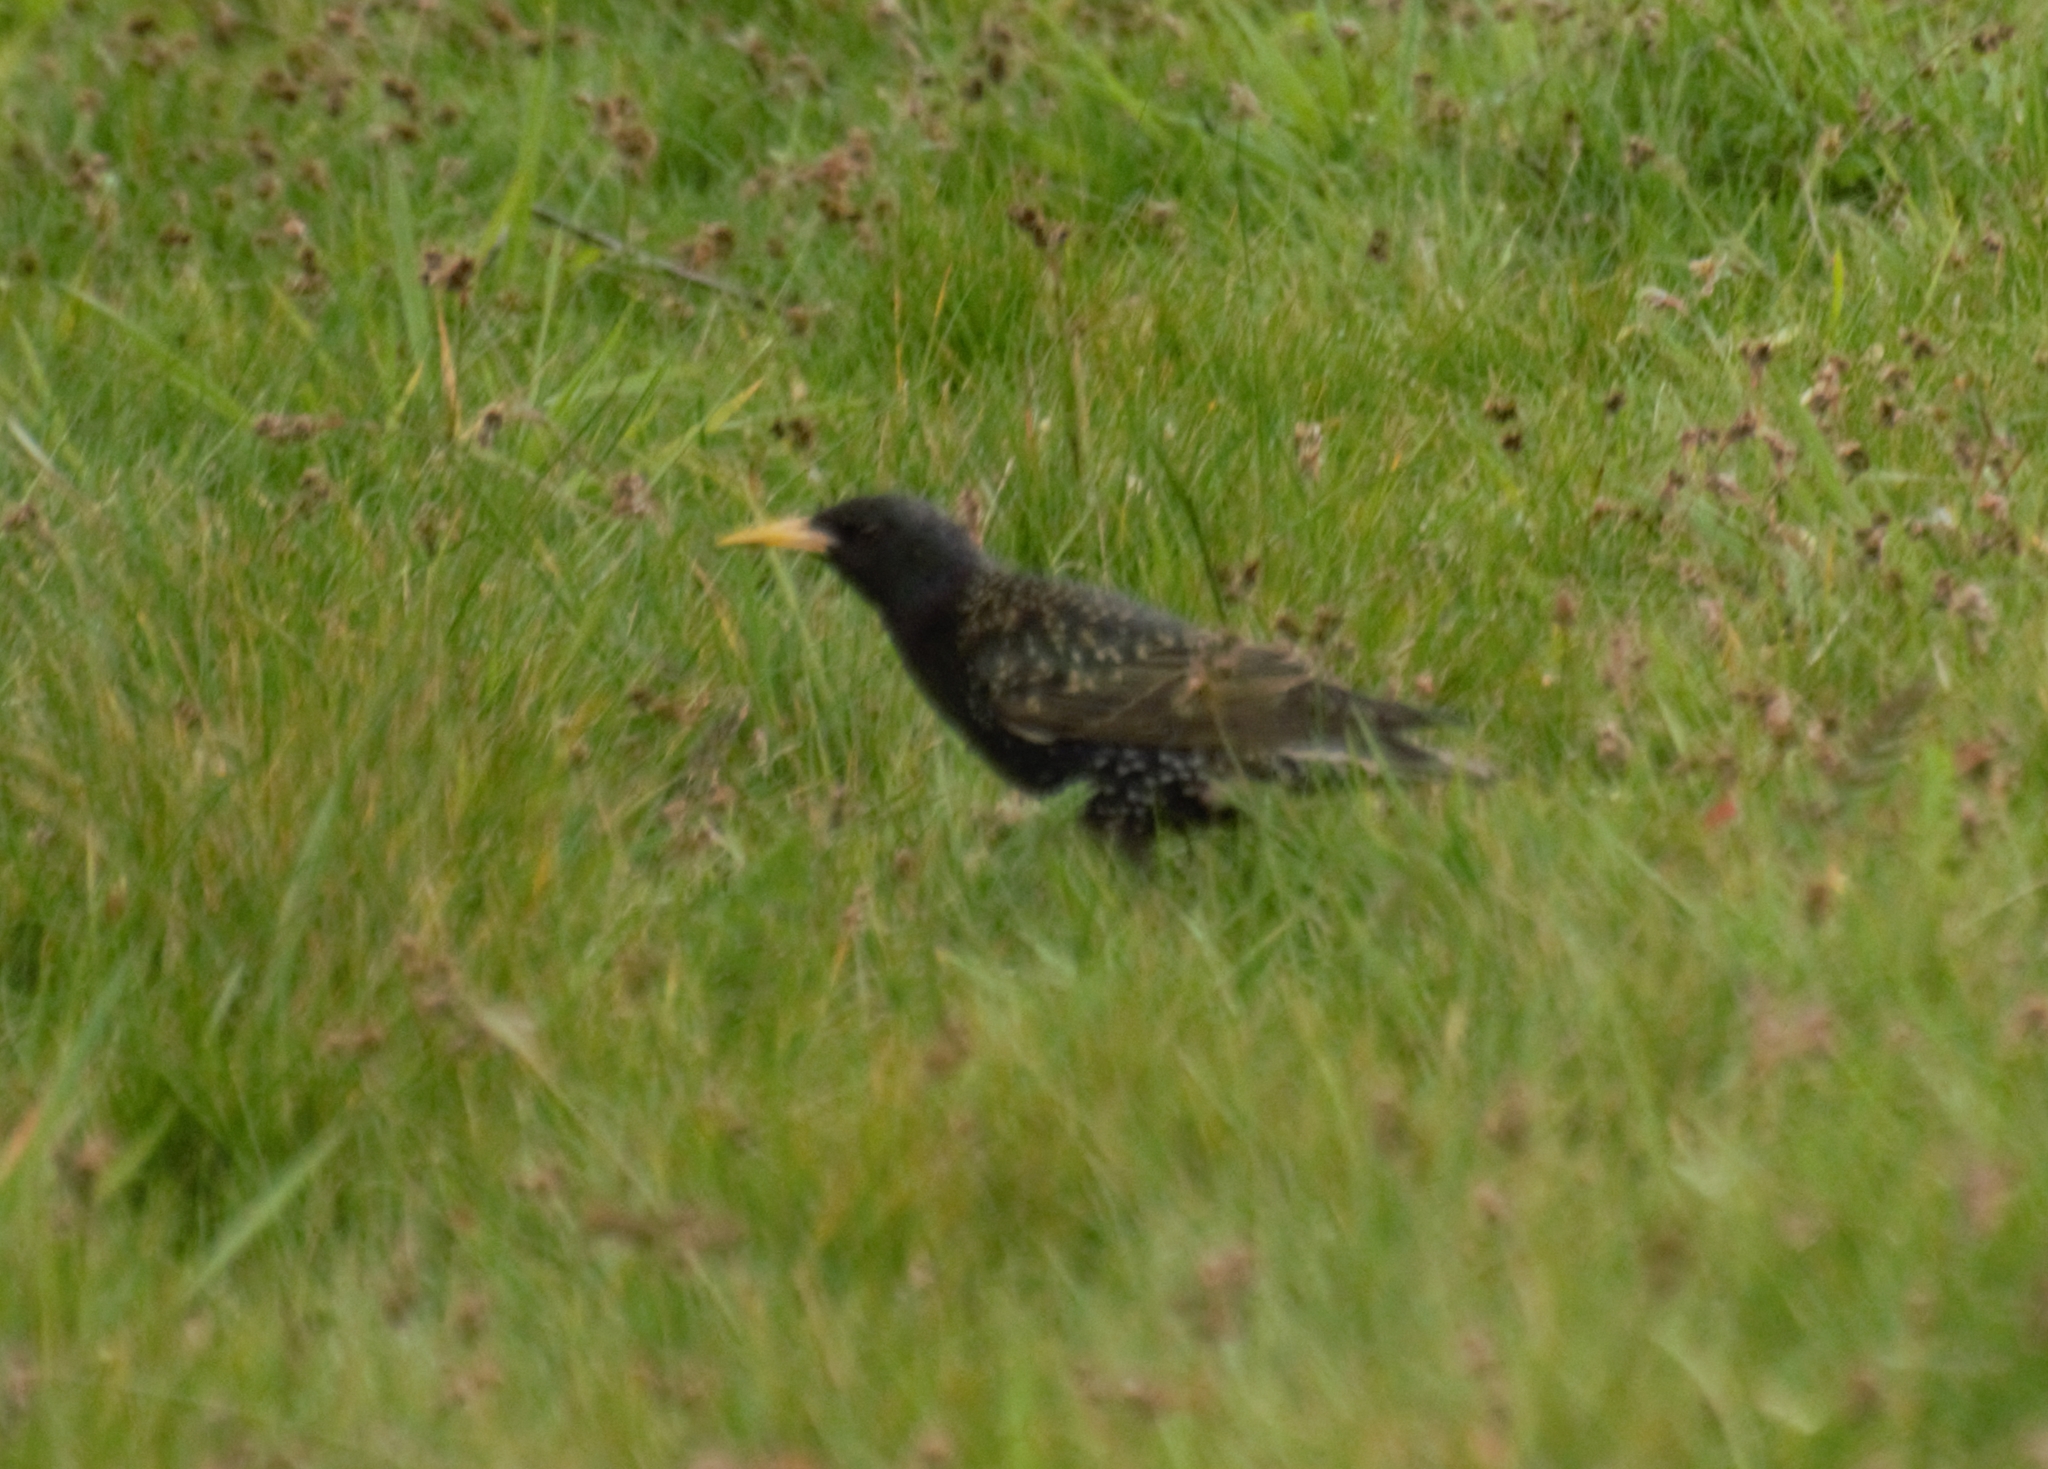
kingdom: Animalia
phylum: Chordata
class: Aves
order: Passeriformes
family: Sturnidae
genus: Sturnus
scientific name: Sturnus vulgaris
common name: Common starling
